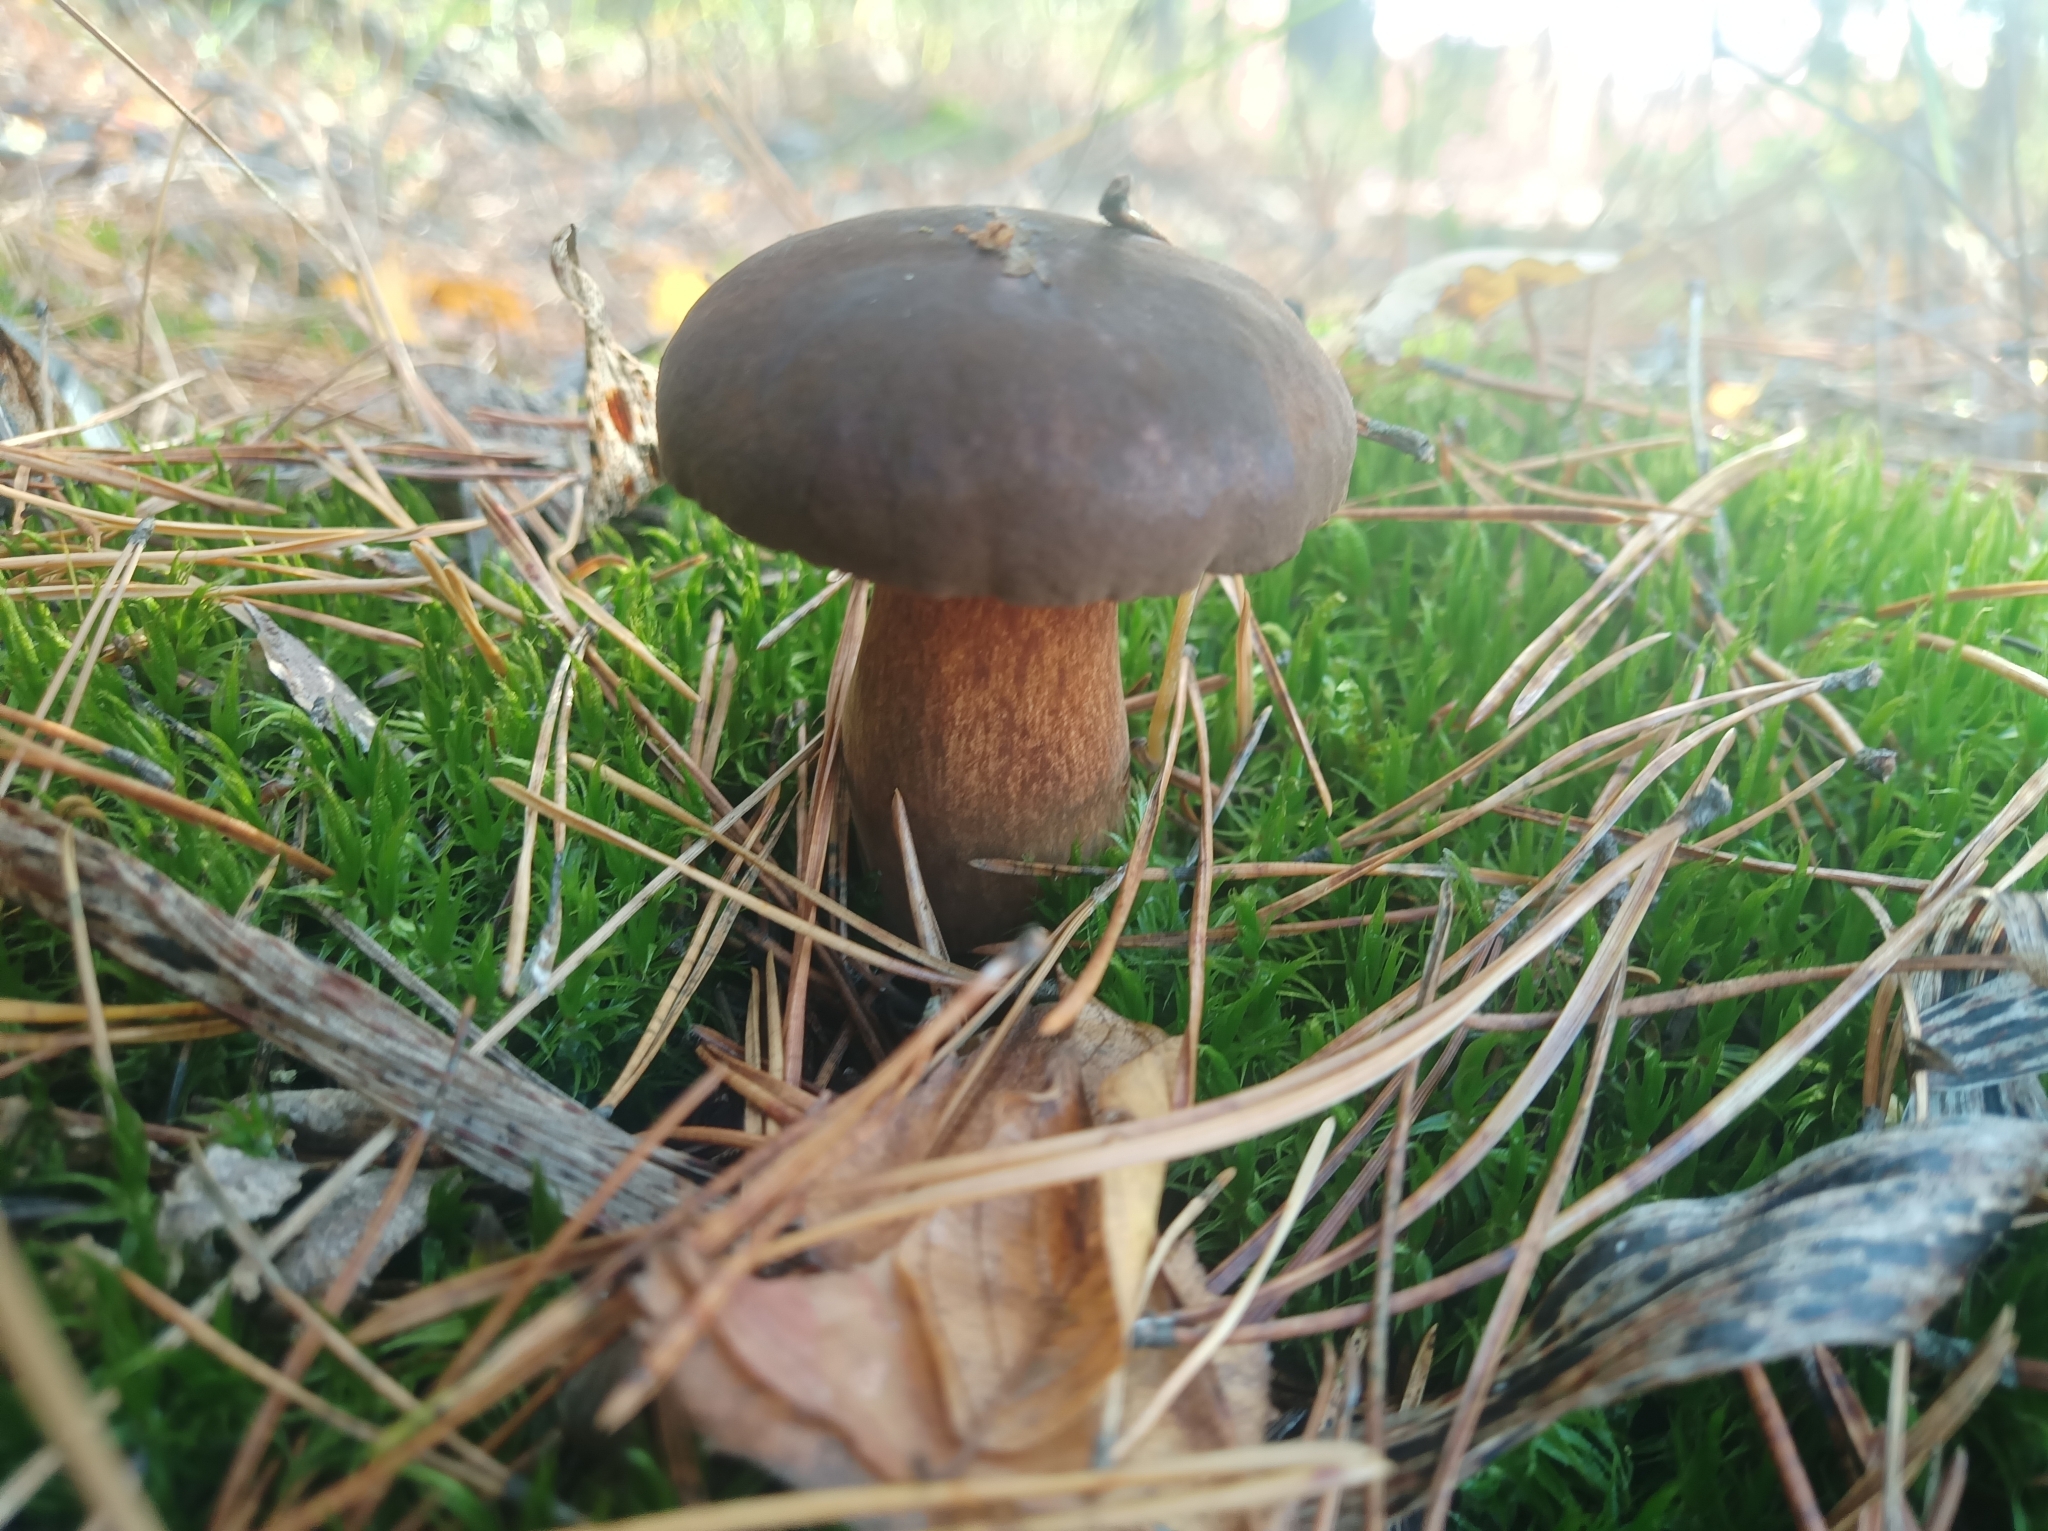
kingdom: Fungi
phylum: Basidiomycota
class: Agaricomycetes
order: Boletales
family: Boletaceae
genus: Imleria
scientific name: Imleria badia
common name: Bay bolete
